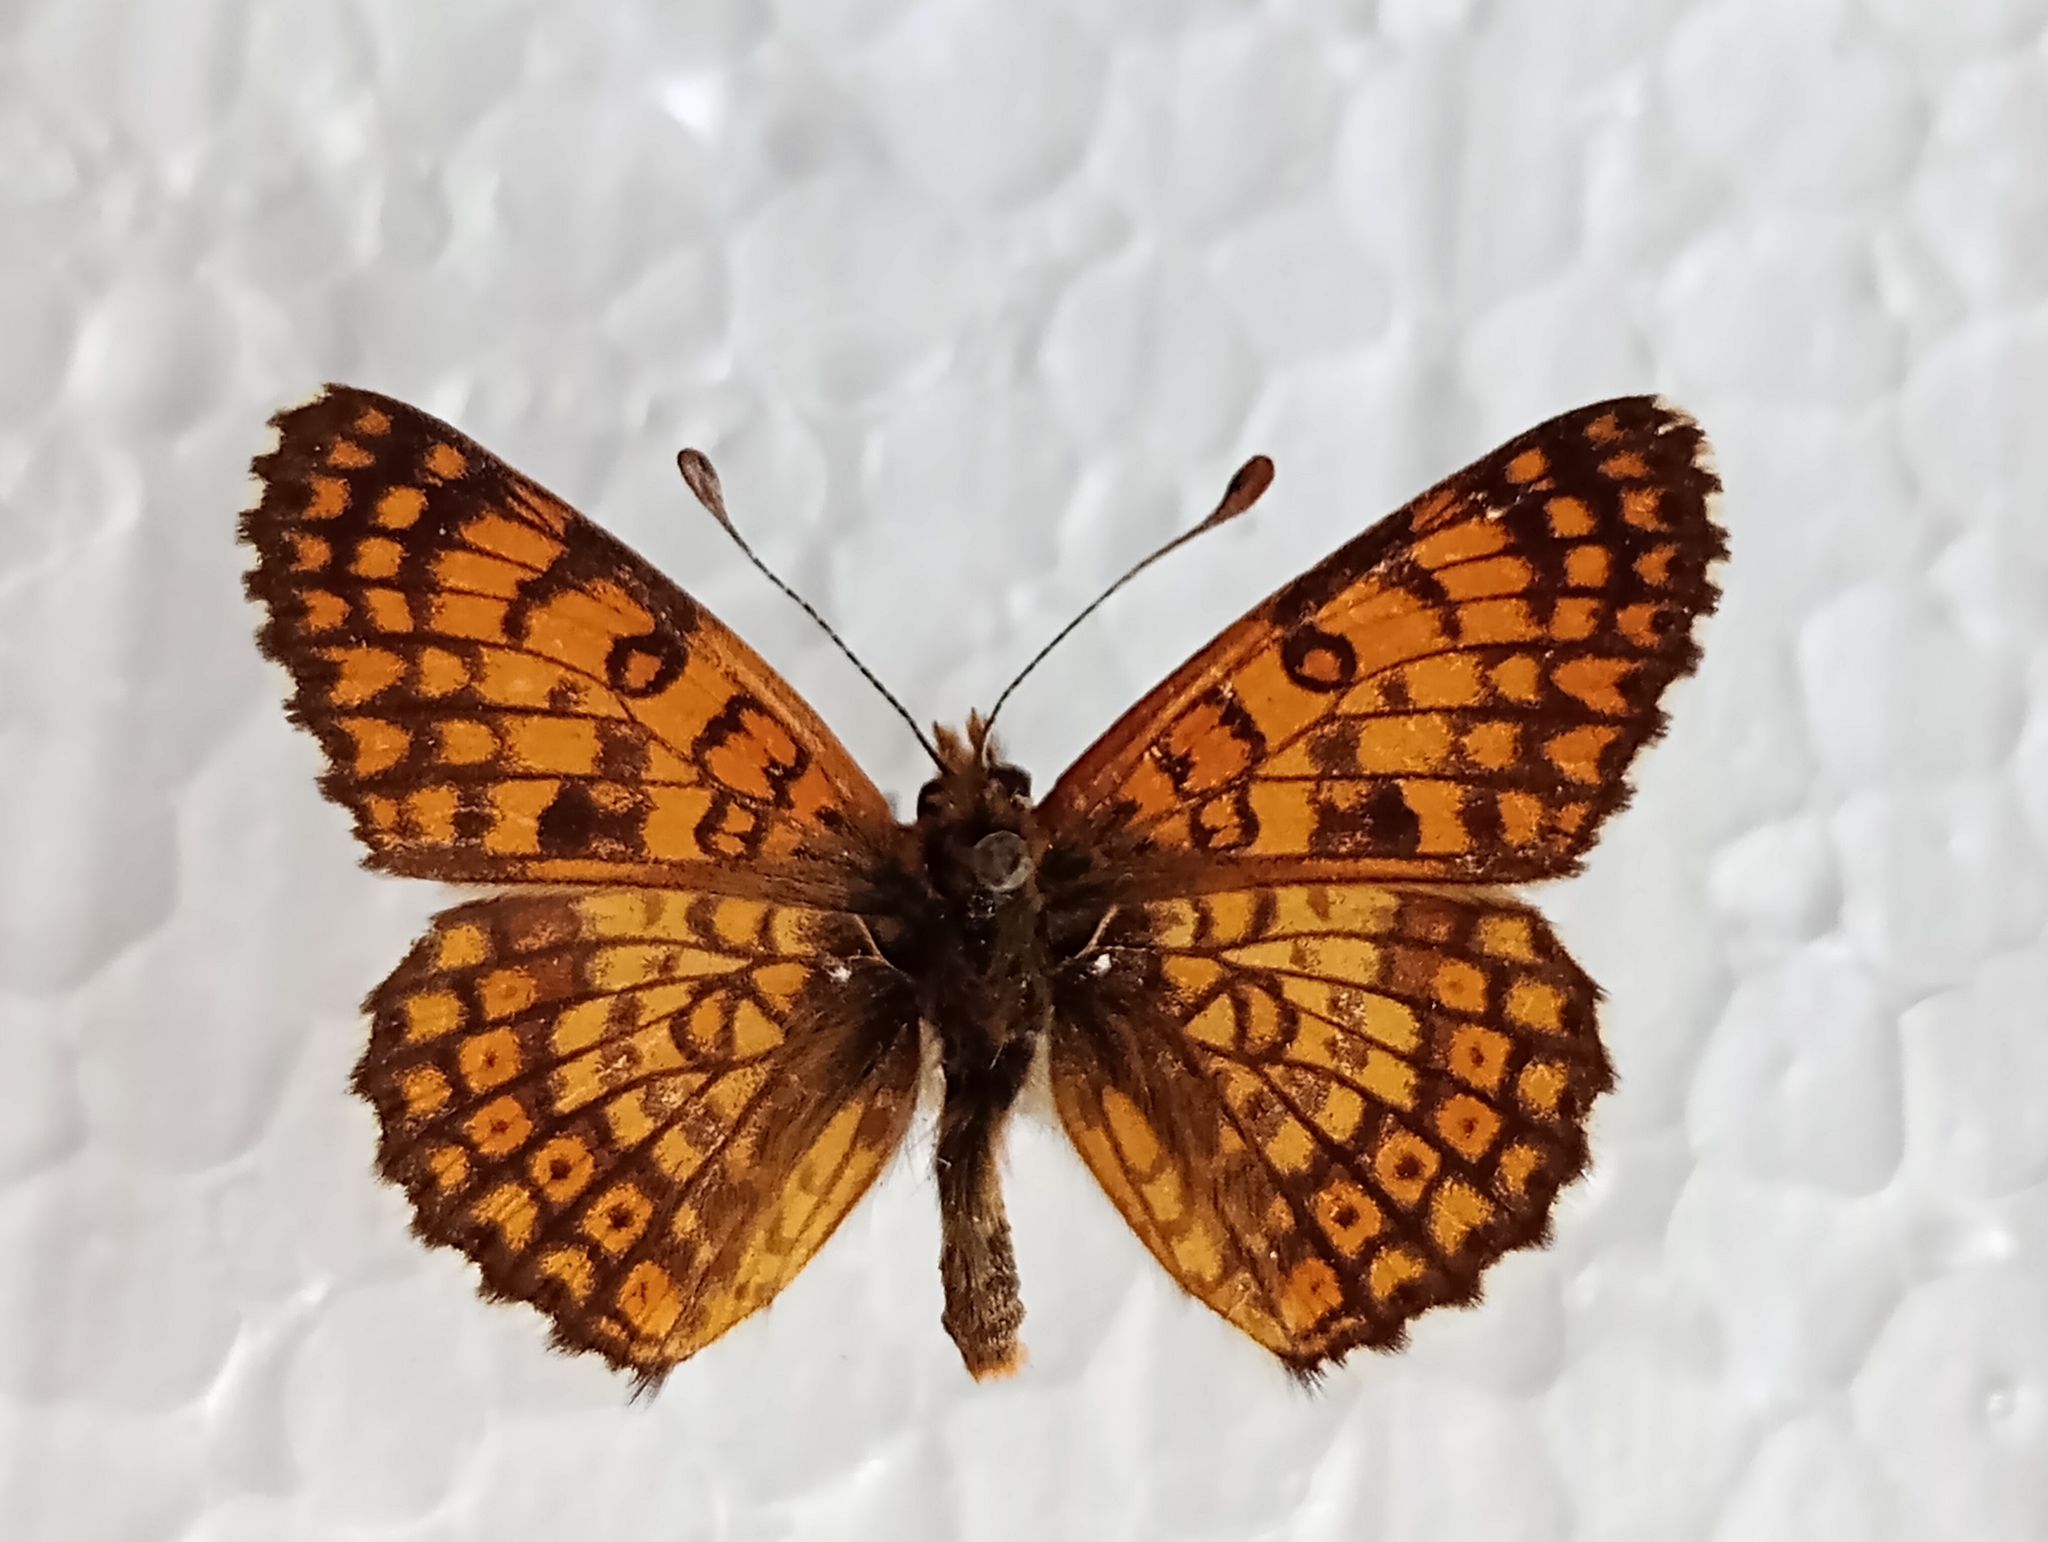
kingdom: Animalia
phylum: Arthropoda
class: Insecta
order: Lepidoptera
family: Nymphalidae
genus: Melitaea
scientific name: Melitaea cinxia
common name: Glanville fritillary
